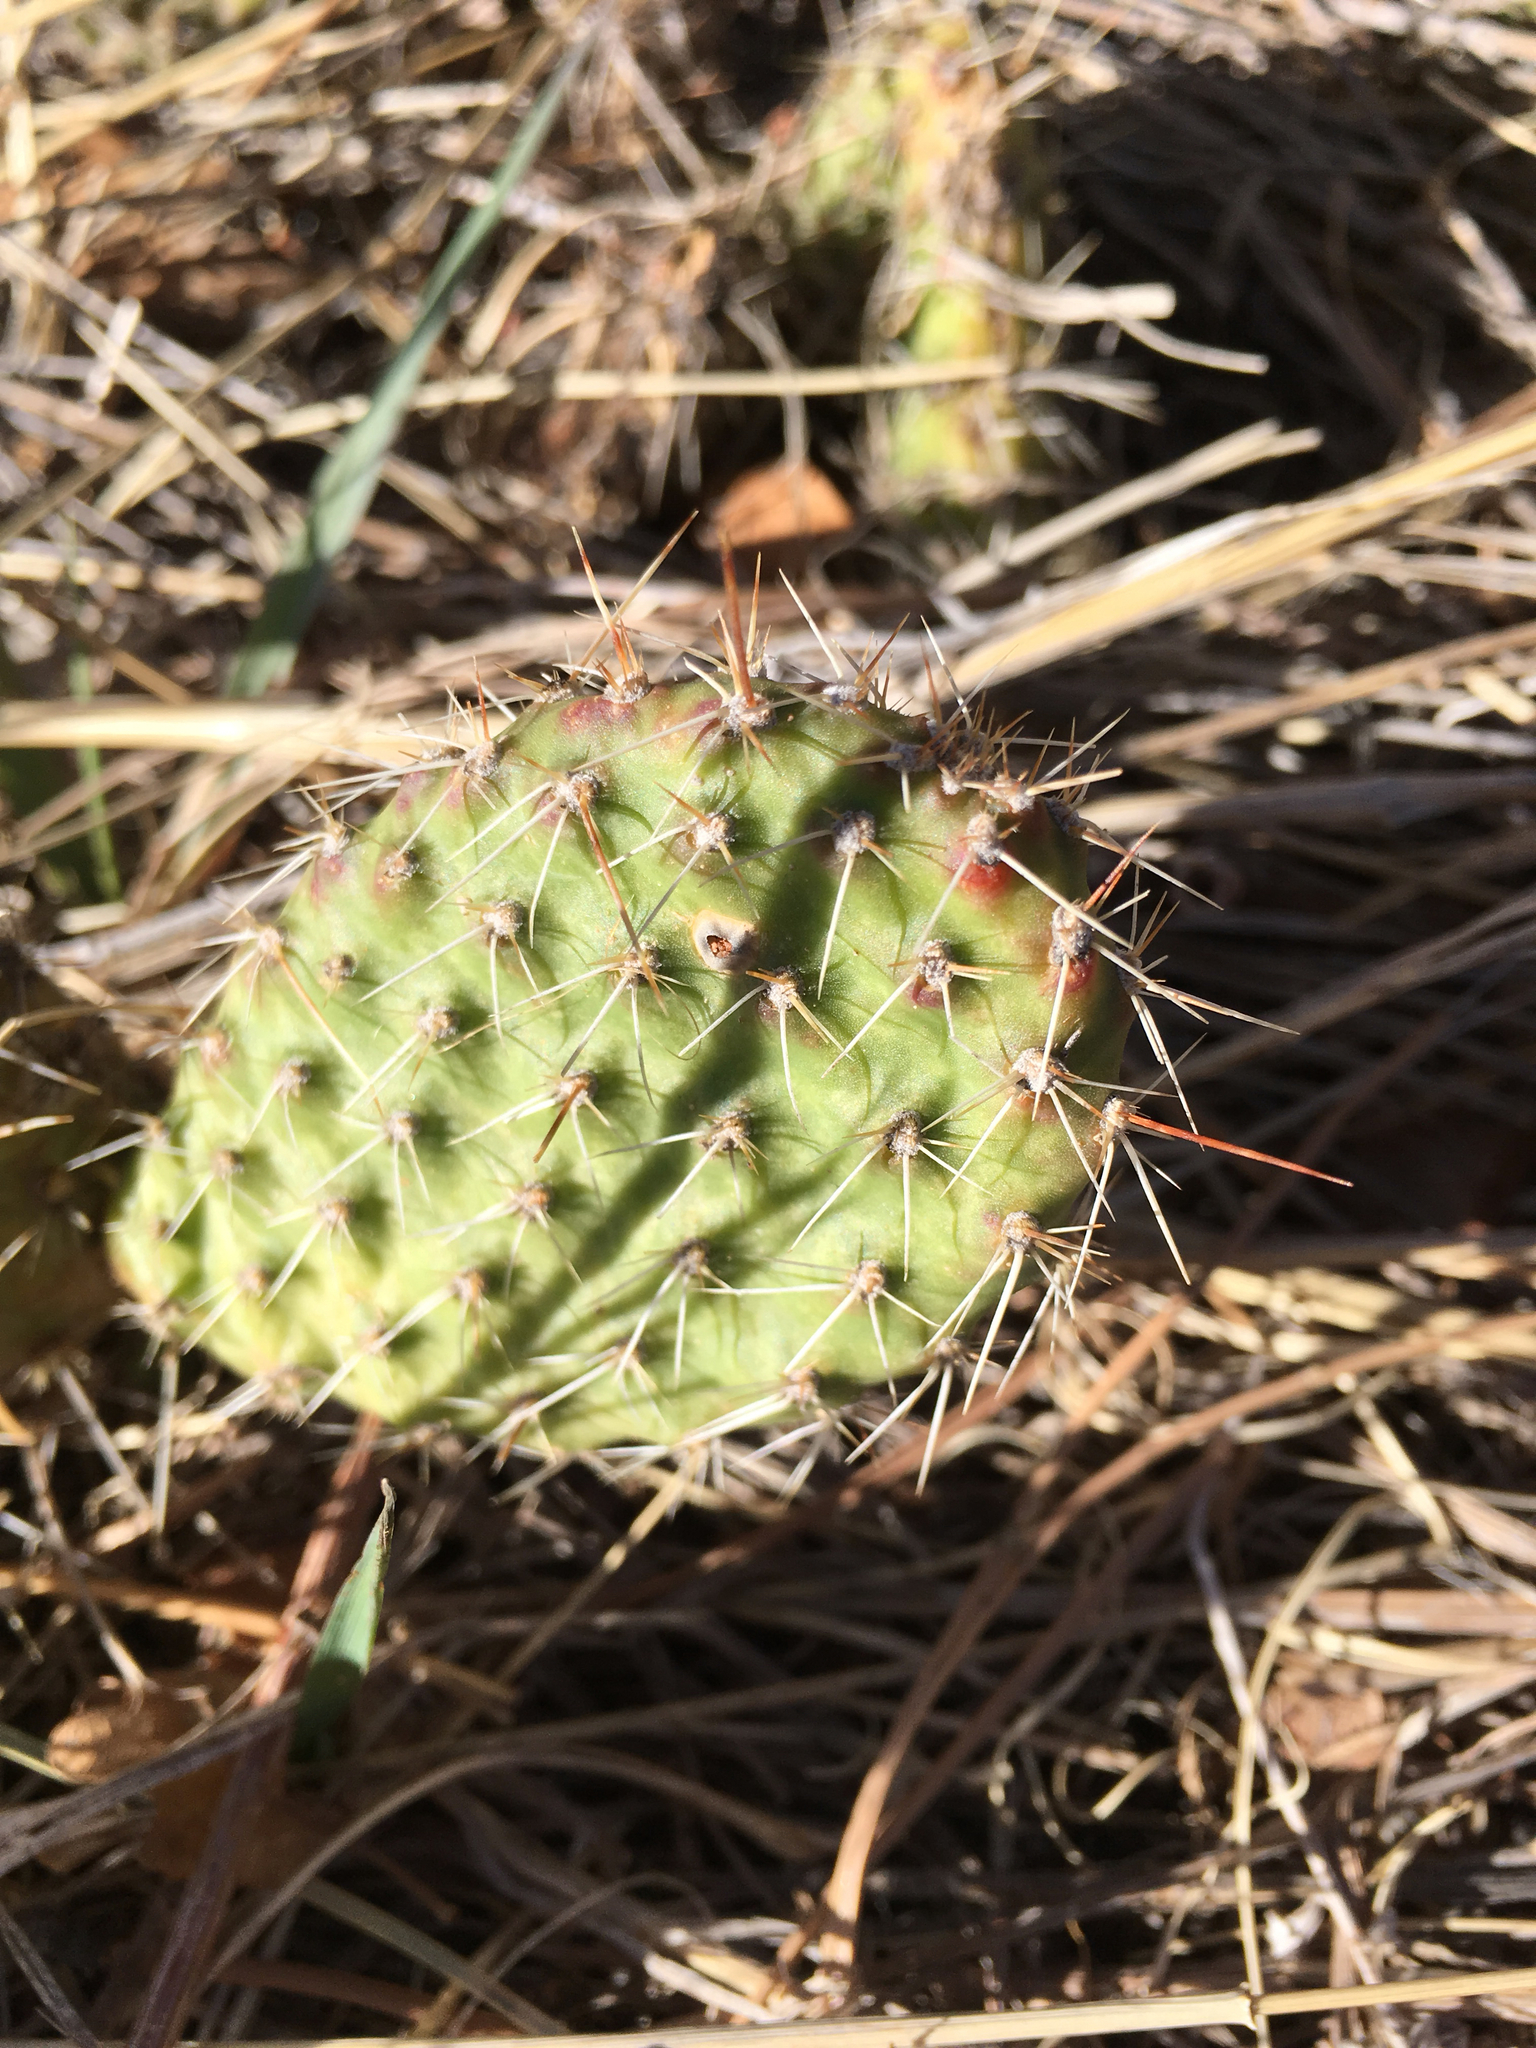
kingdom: Plantae
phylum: Tracheophyta
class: Magnoliopsida
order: Caryophyllales
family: Cactaceae
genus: Opuntia
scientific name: Opuntia polyacantha
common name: Plains prickly-pear
